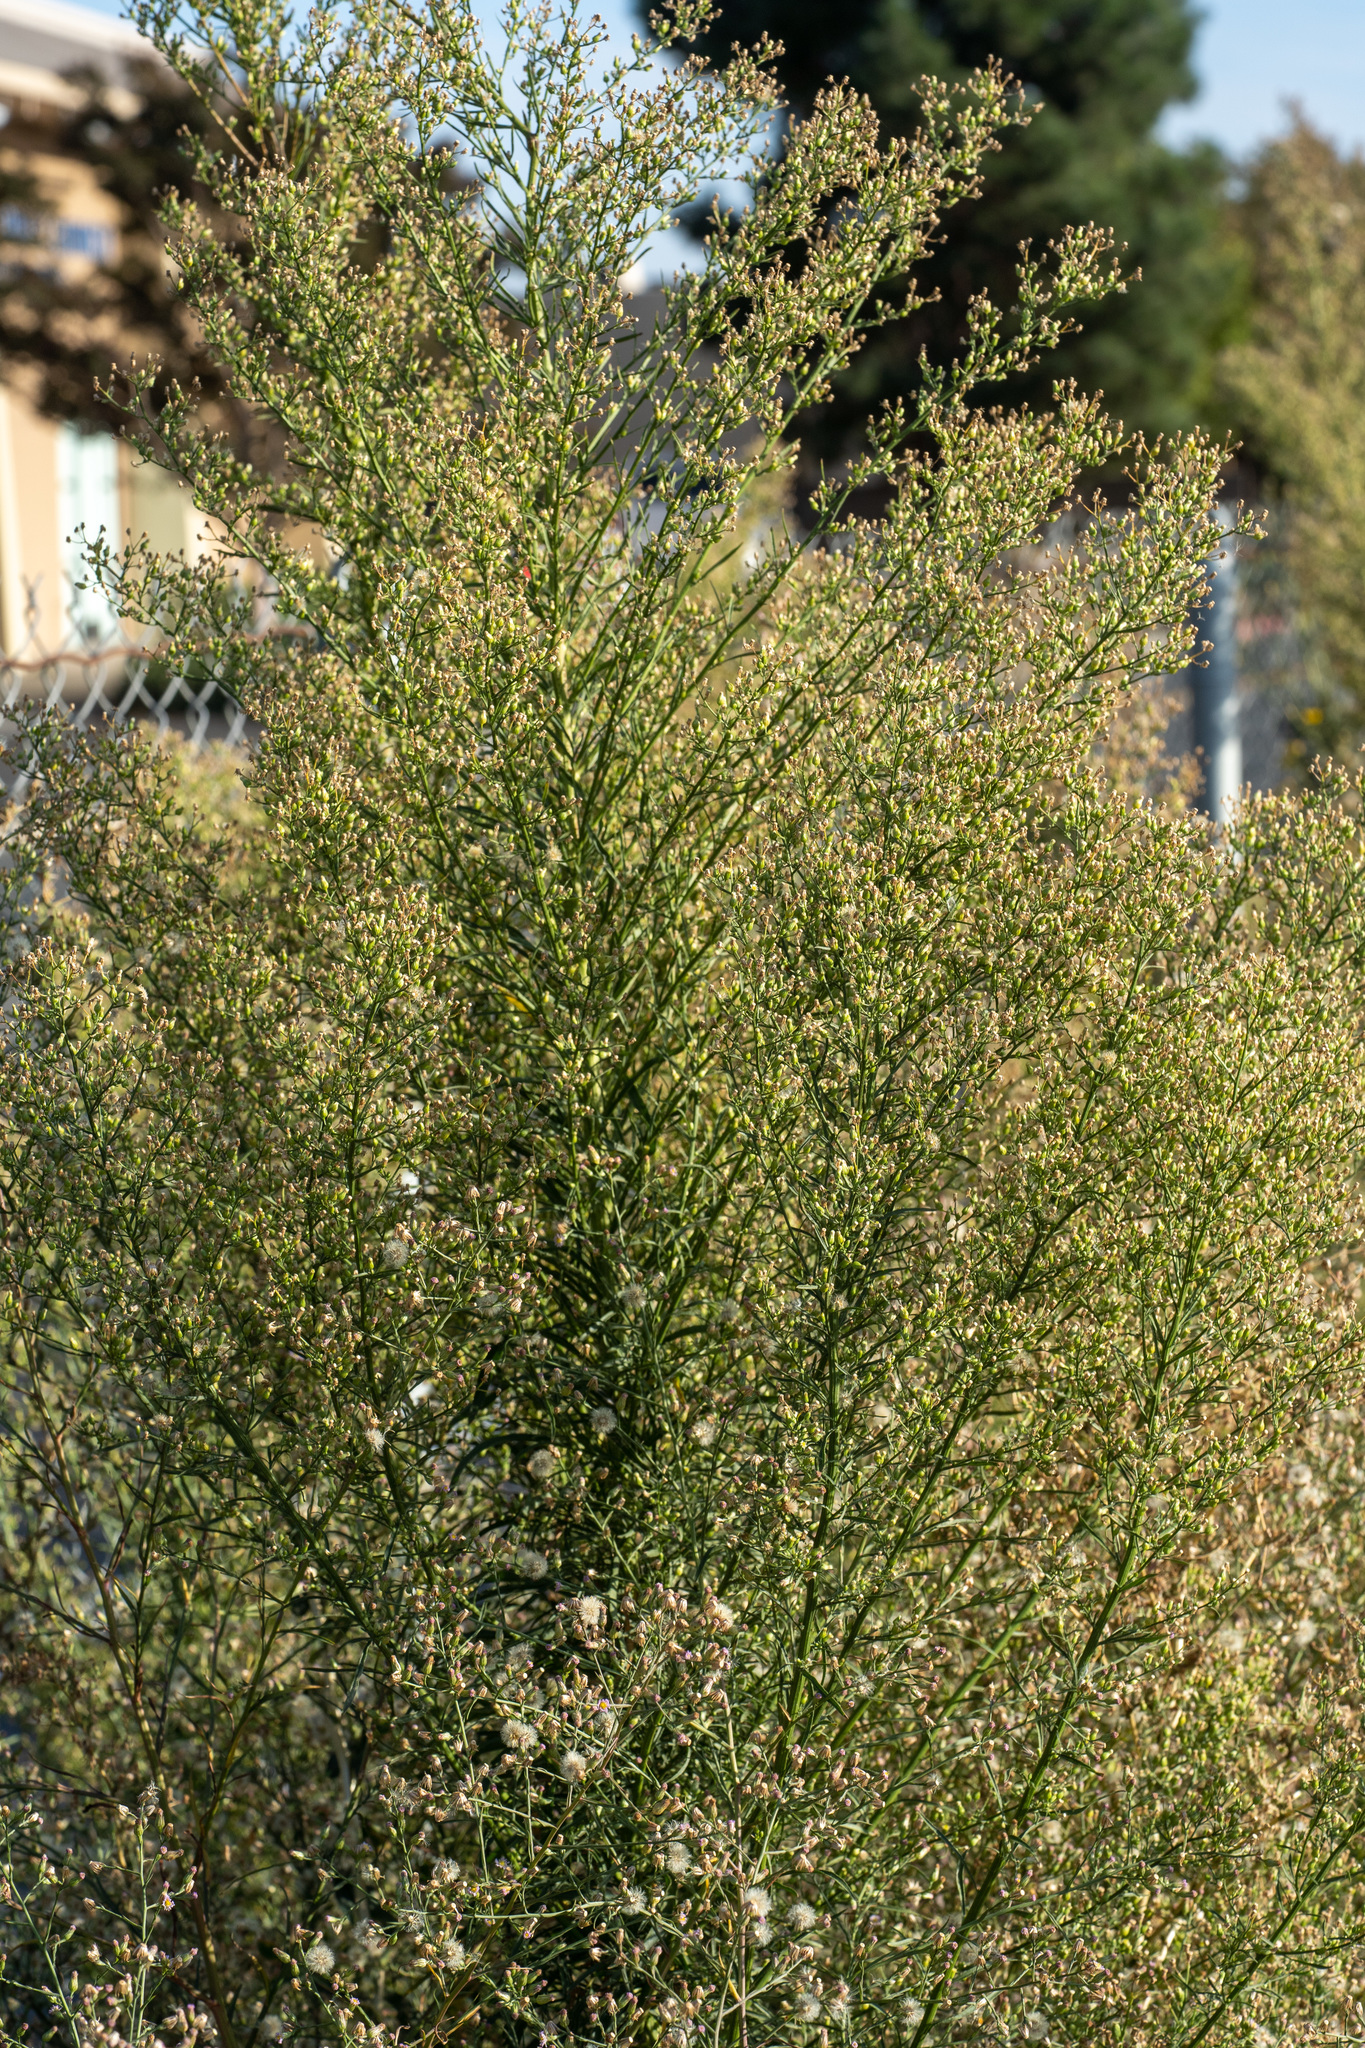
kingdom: Plantae
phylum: Tracheophyta
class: Magnoliopsida
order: Asterales
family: Asteraceae
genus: Erigeron
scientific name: Erigeron canadensis
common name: Canadian fleabane
